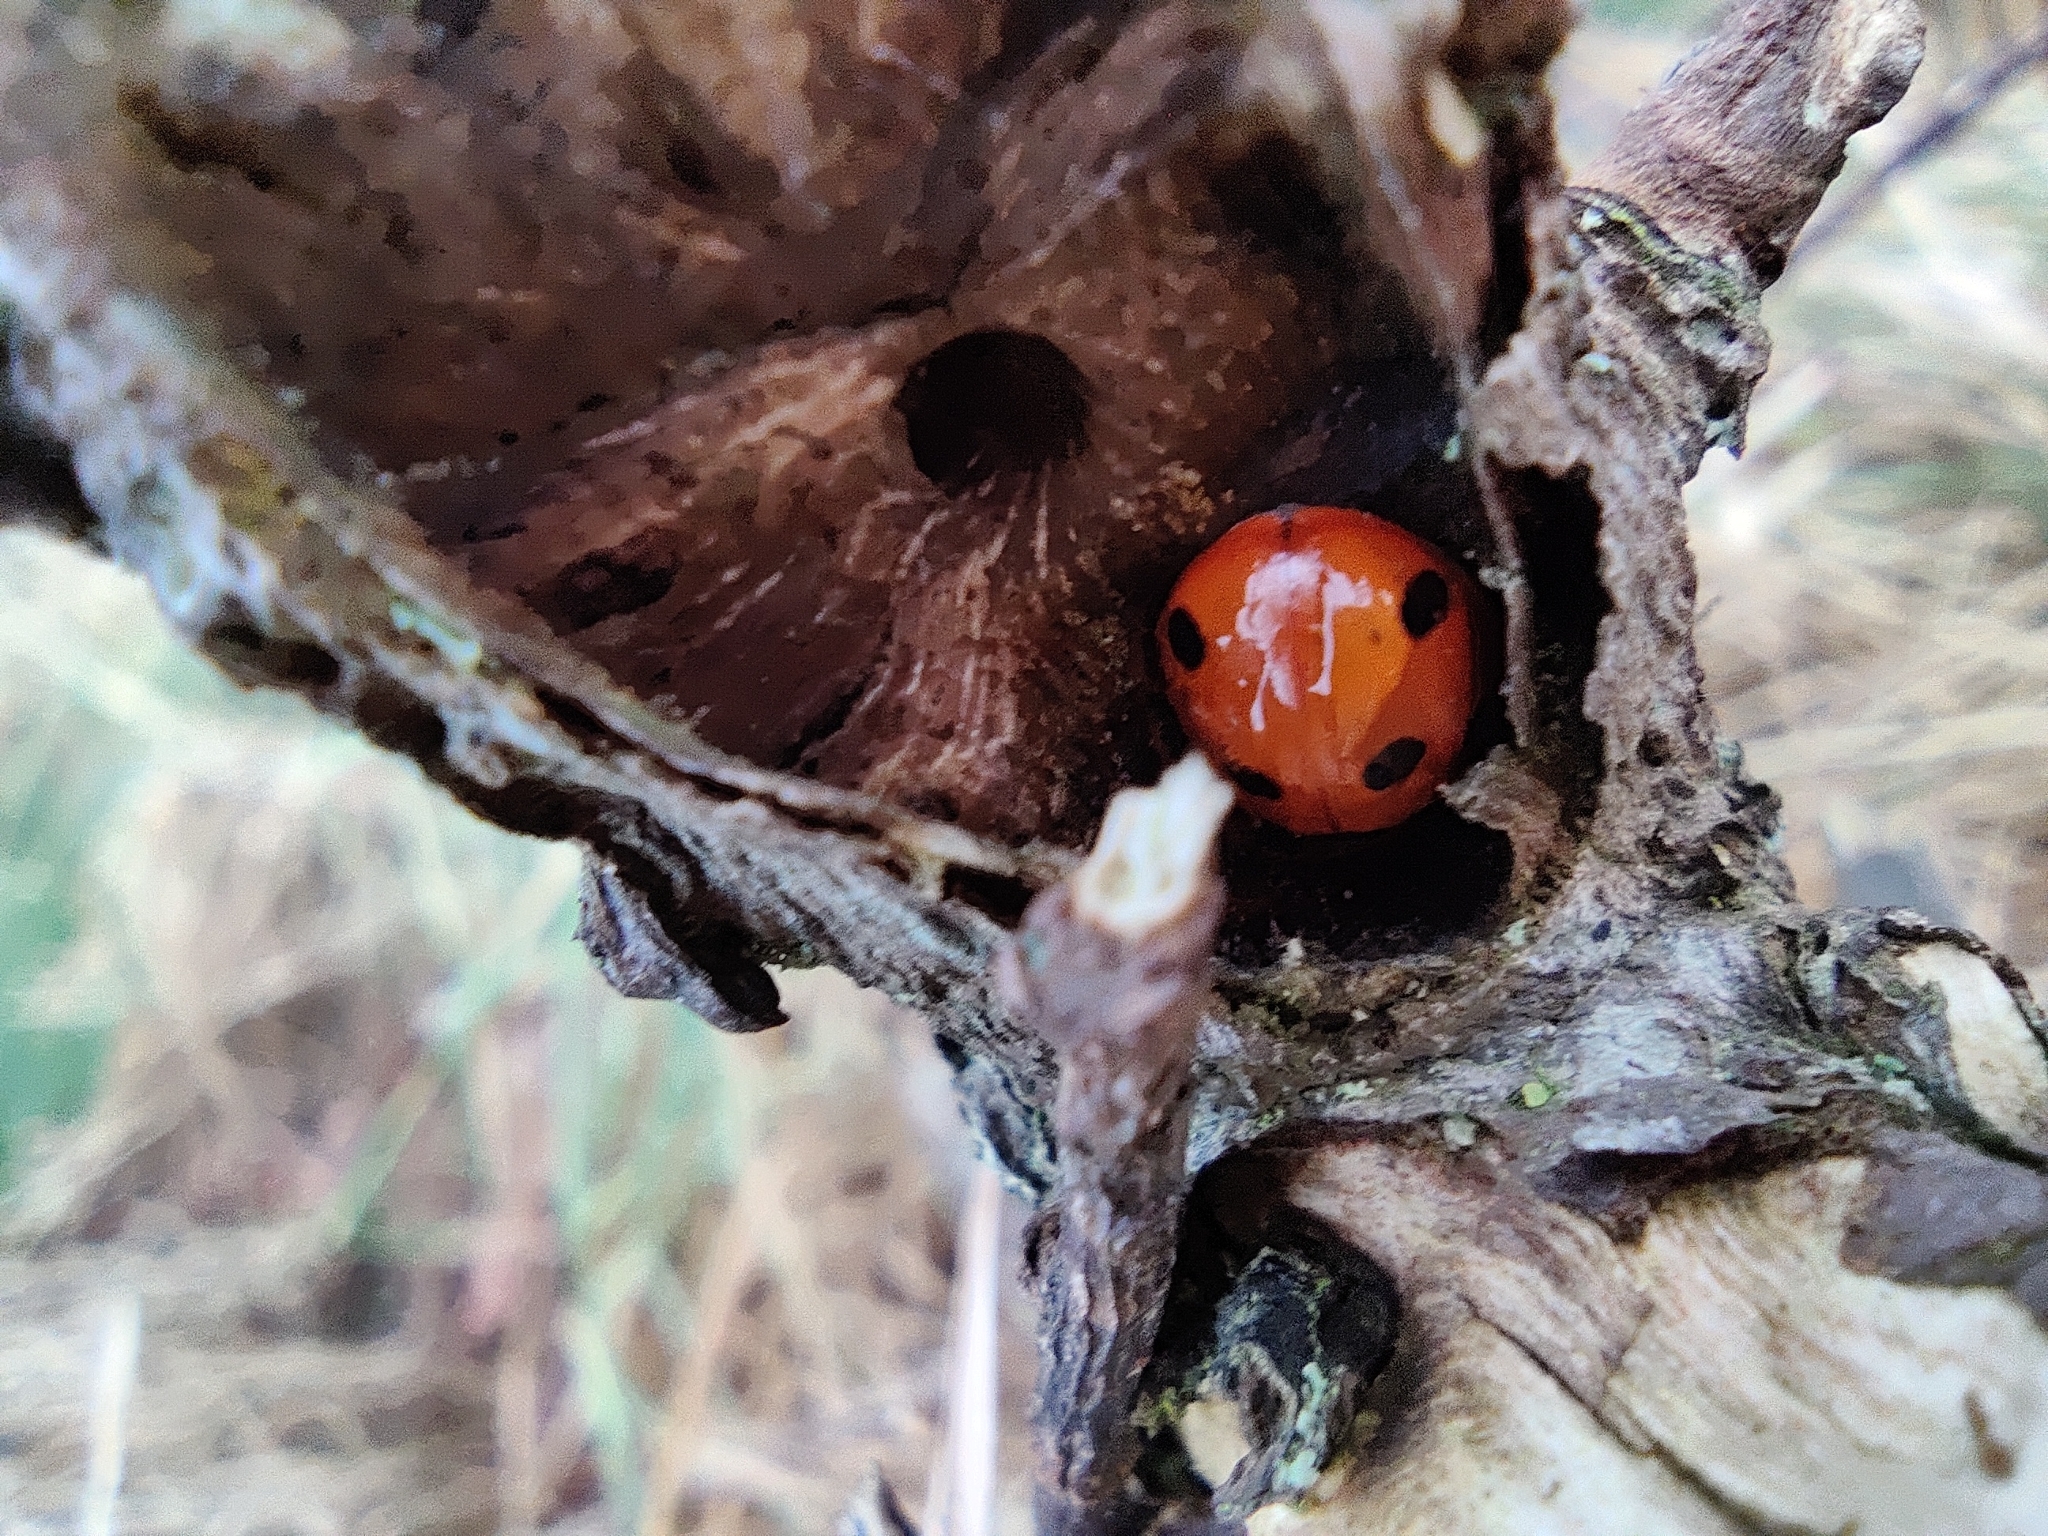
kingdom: Animalia
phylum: Arthropoda
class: Insecta
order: Coleoptera
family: Coccinellidae
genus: Coccinella
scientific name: Coccinella septempunctata
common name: Sevenspotted lady beetle
